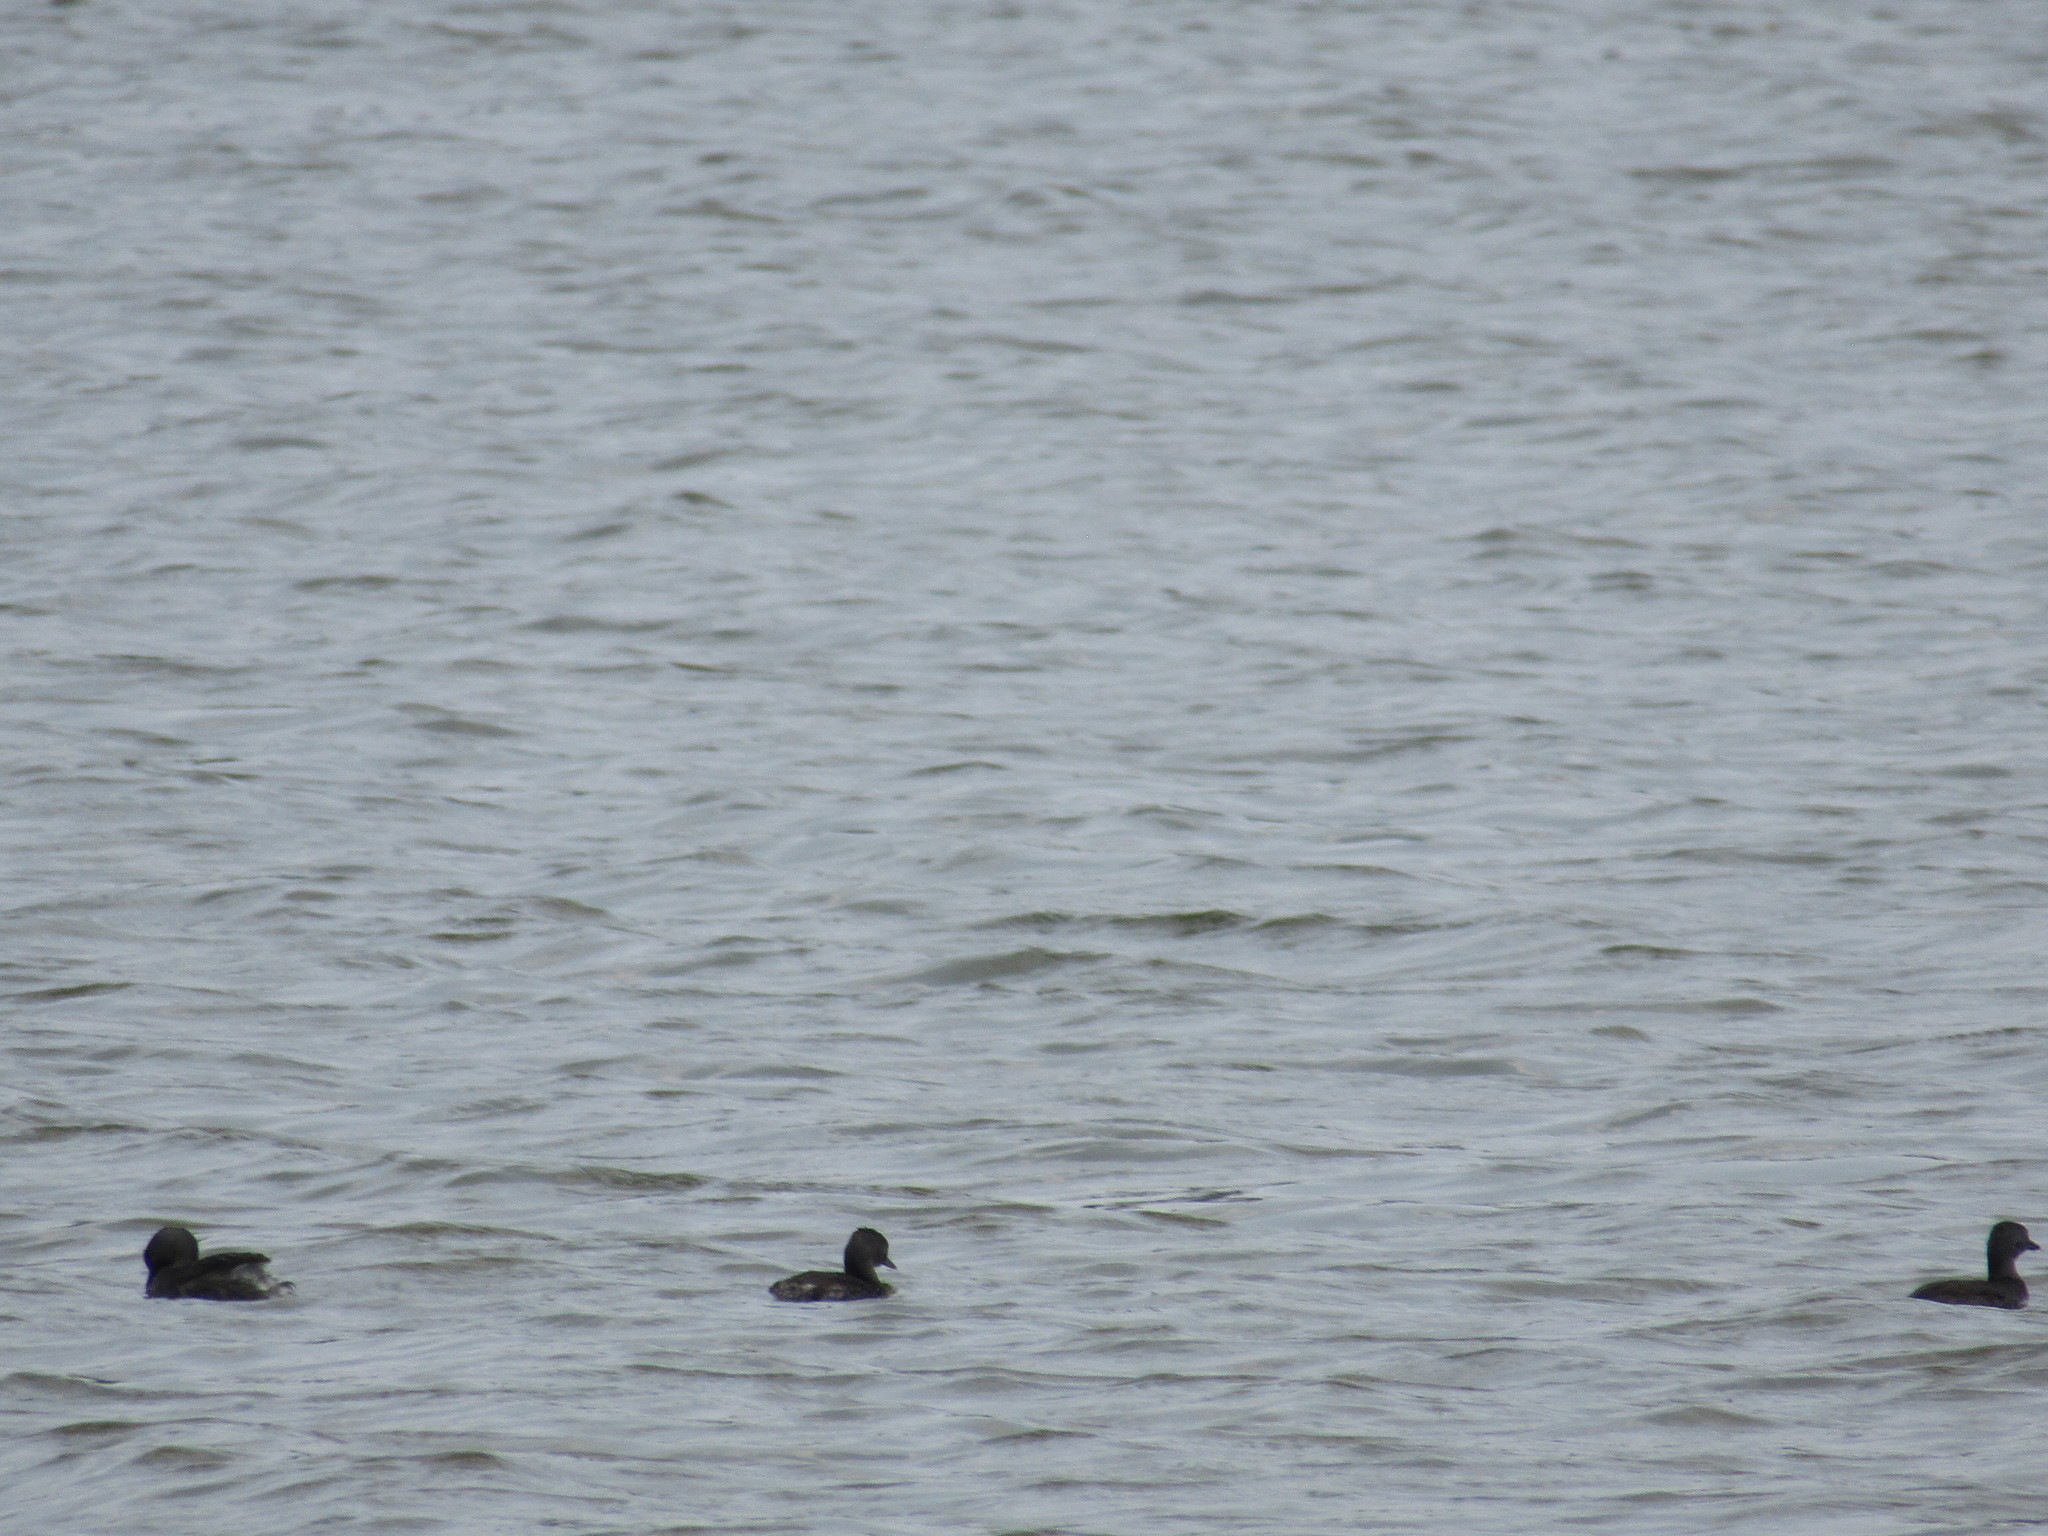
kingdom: Animalia
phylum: Chordata
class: Aves
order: Podicipediformes
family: Podicipedidae
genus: Tachybaptus
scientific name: Tachybaptus dominicus
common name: Least grebe
